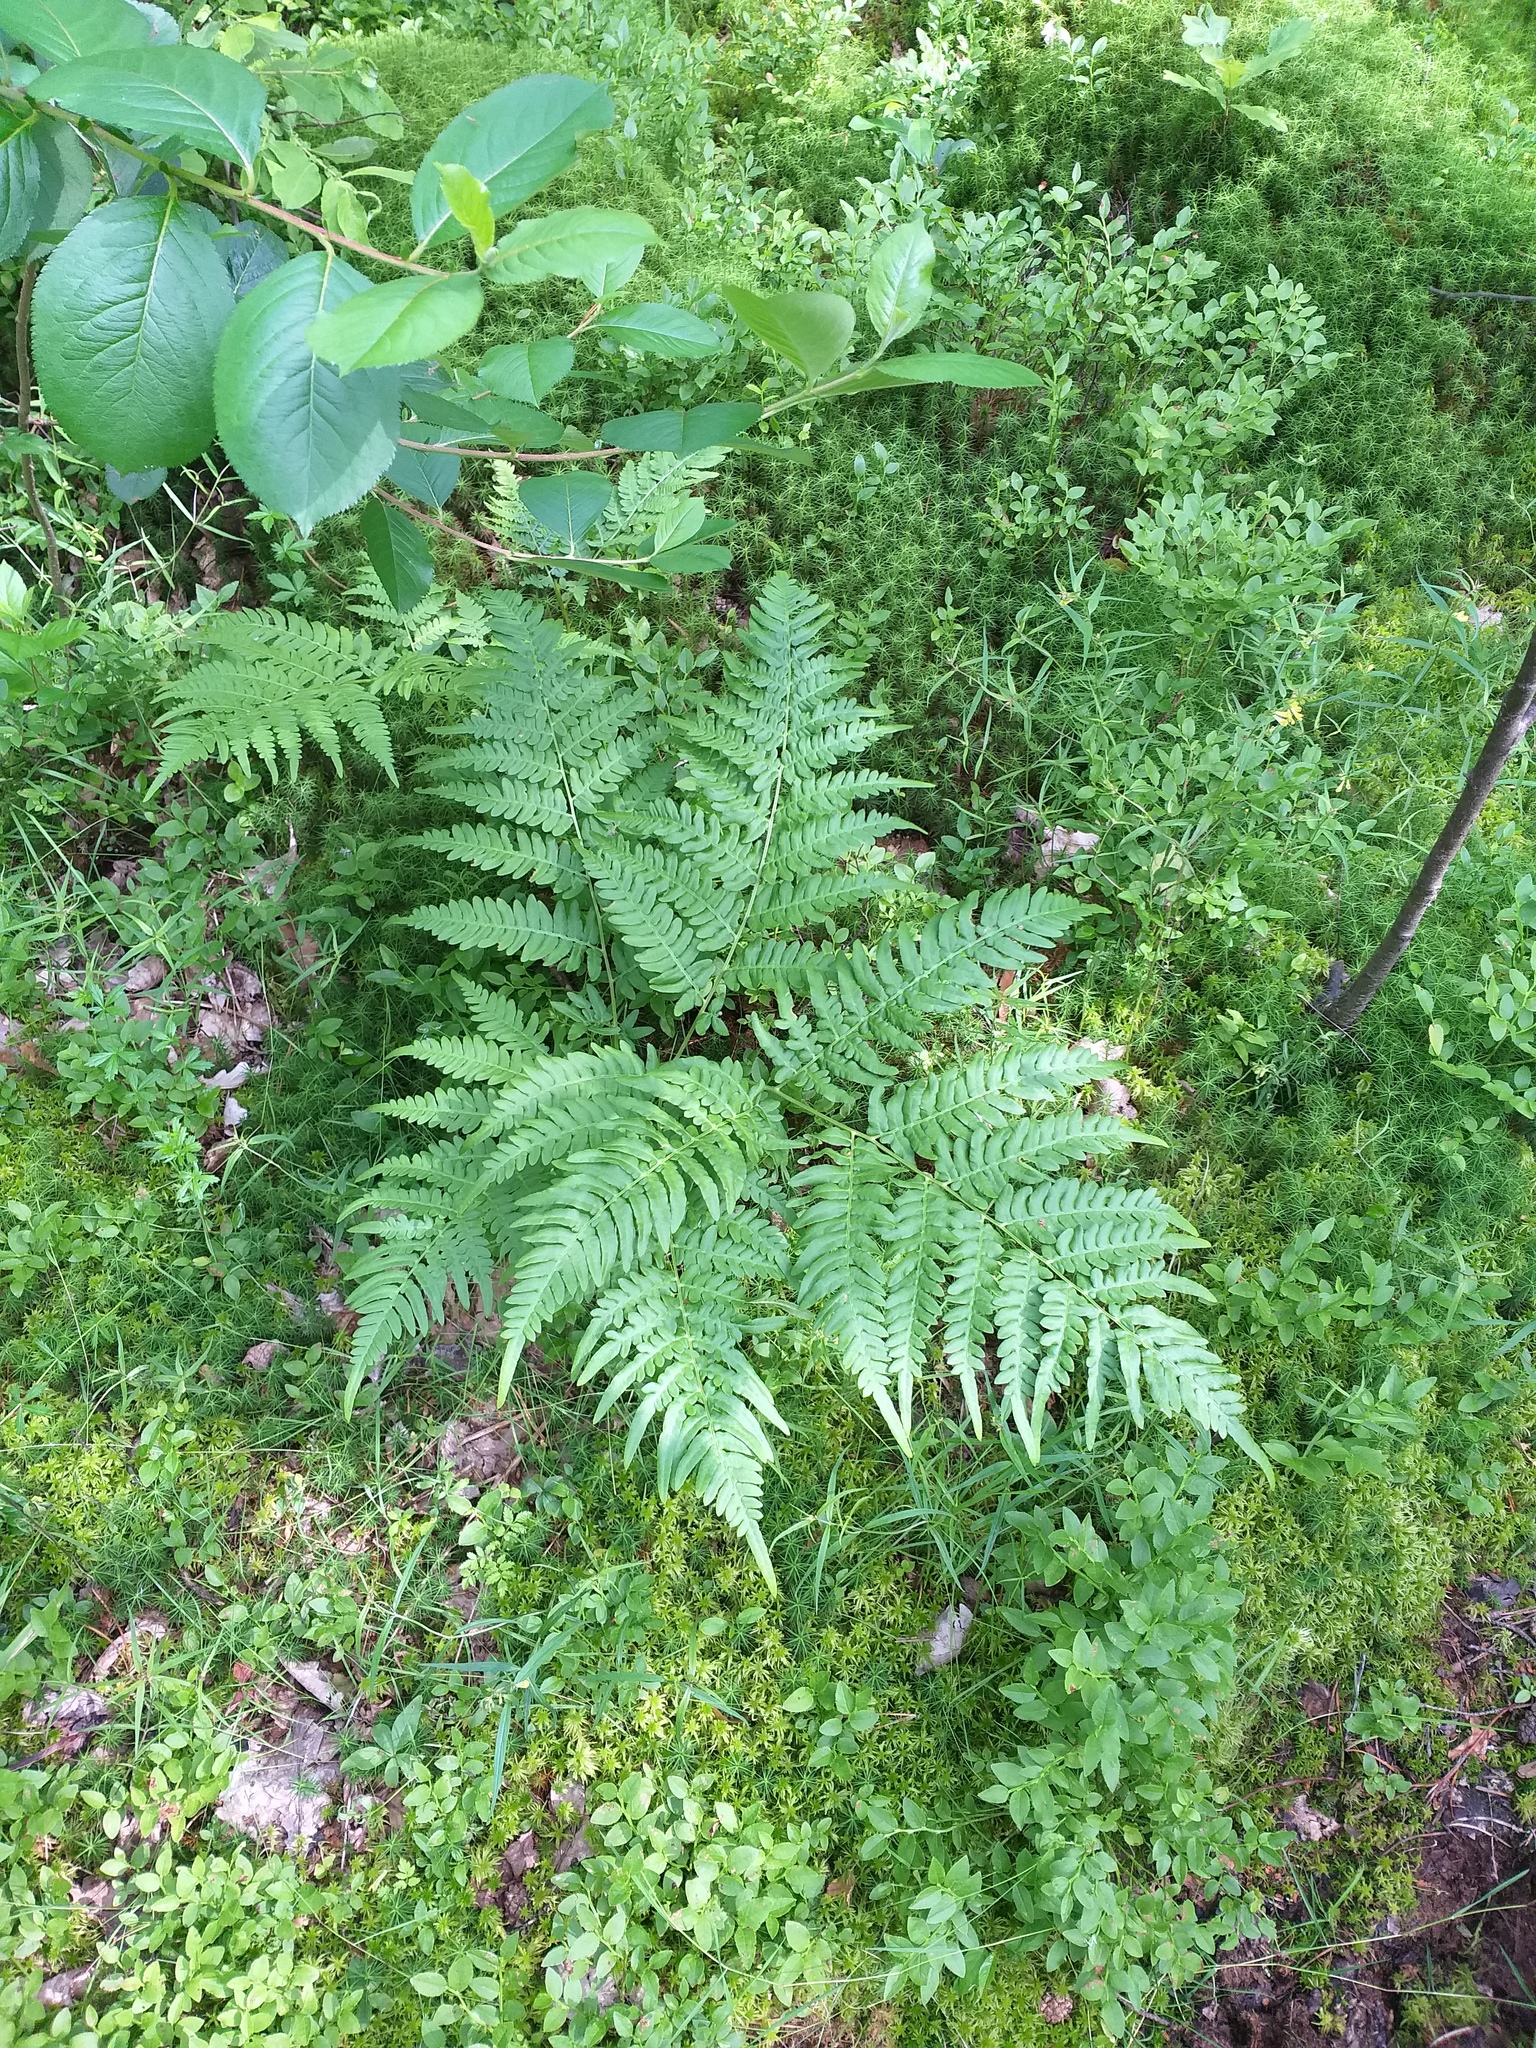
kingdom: Plantae
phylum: Tracheophyta
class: Polypodiopsida
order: Polypodiales
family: Dennstaedtiaceae
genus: Pteridium
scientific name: Pteridium aquilinum
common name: Bracken
